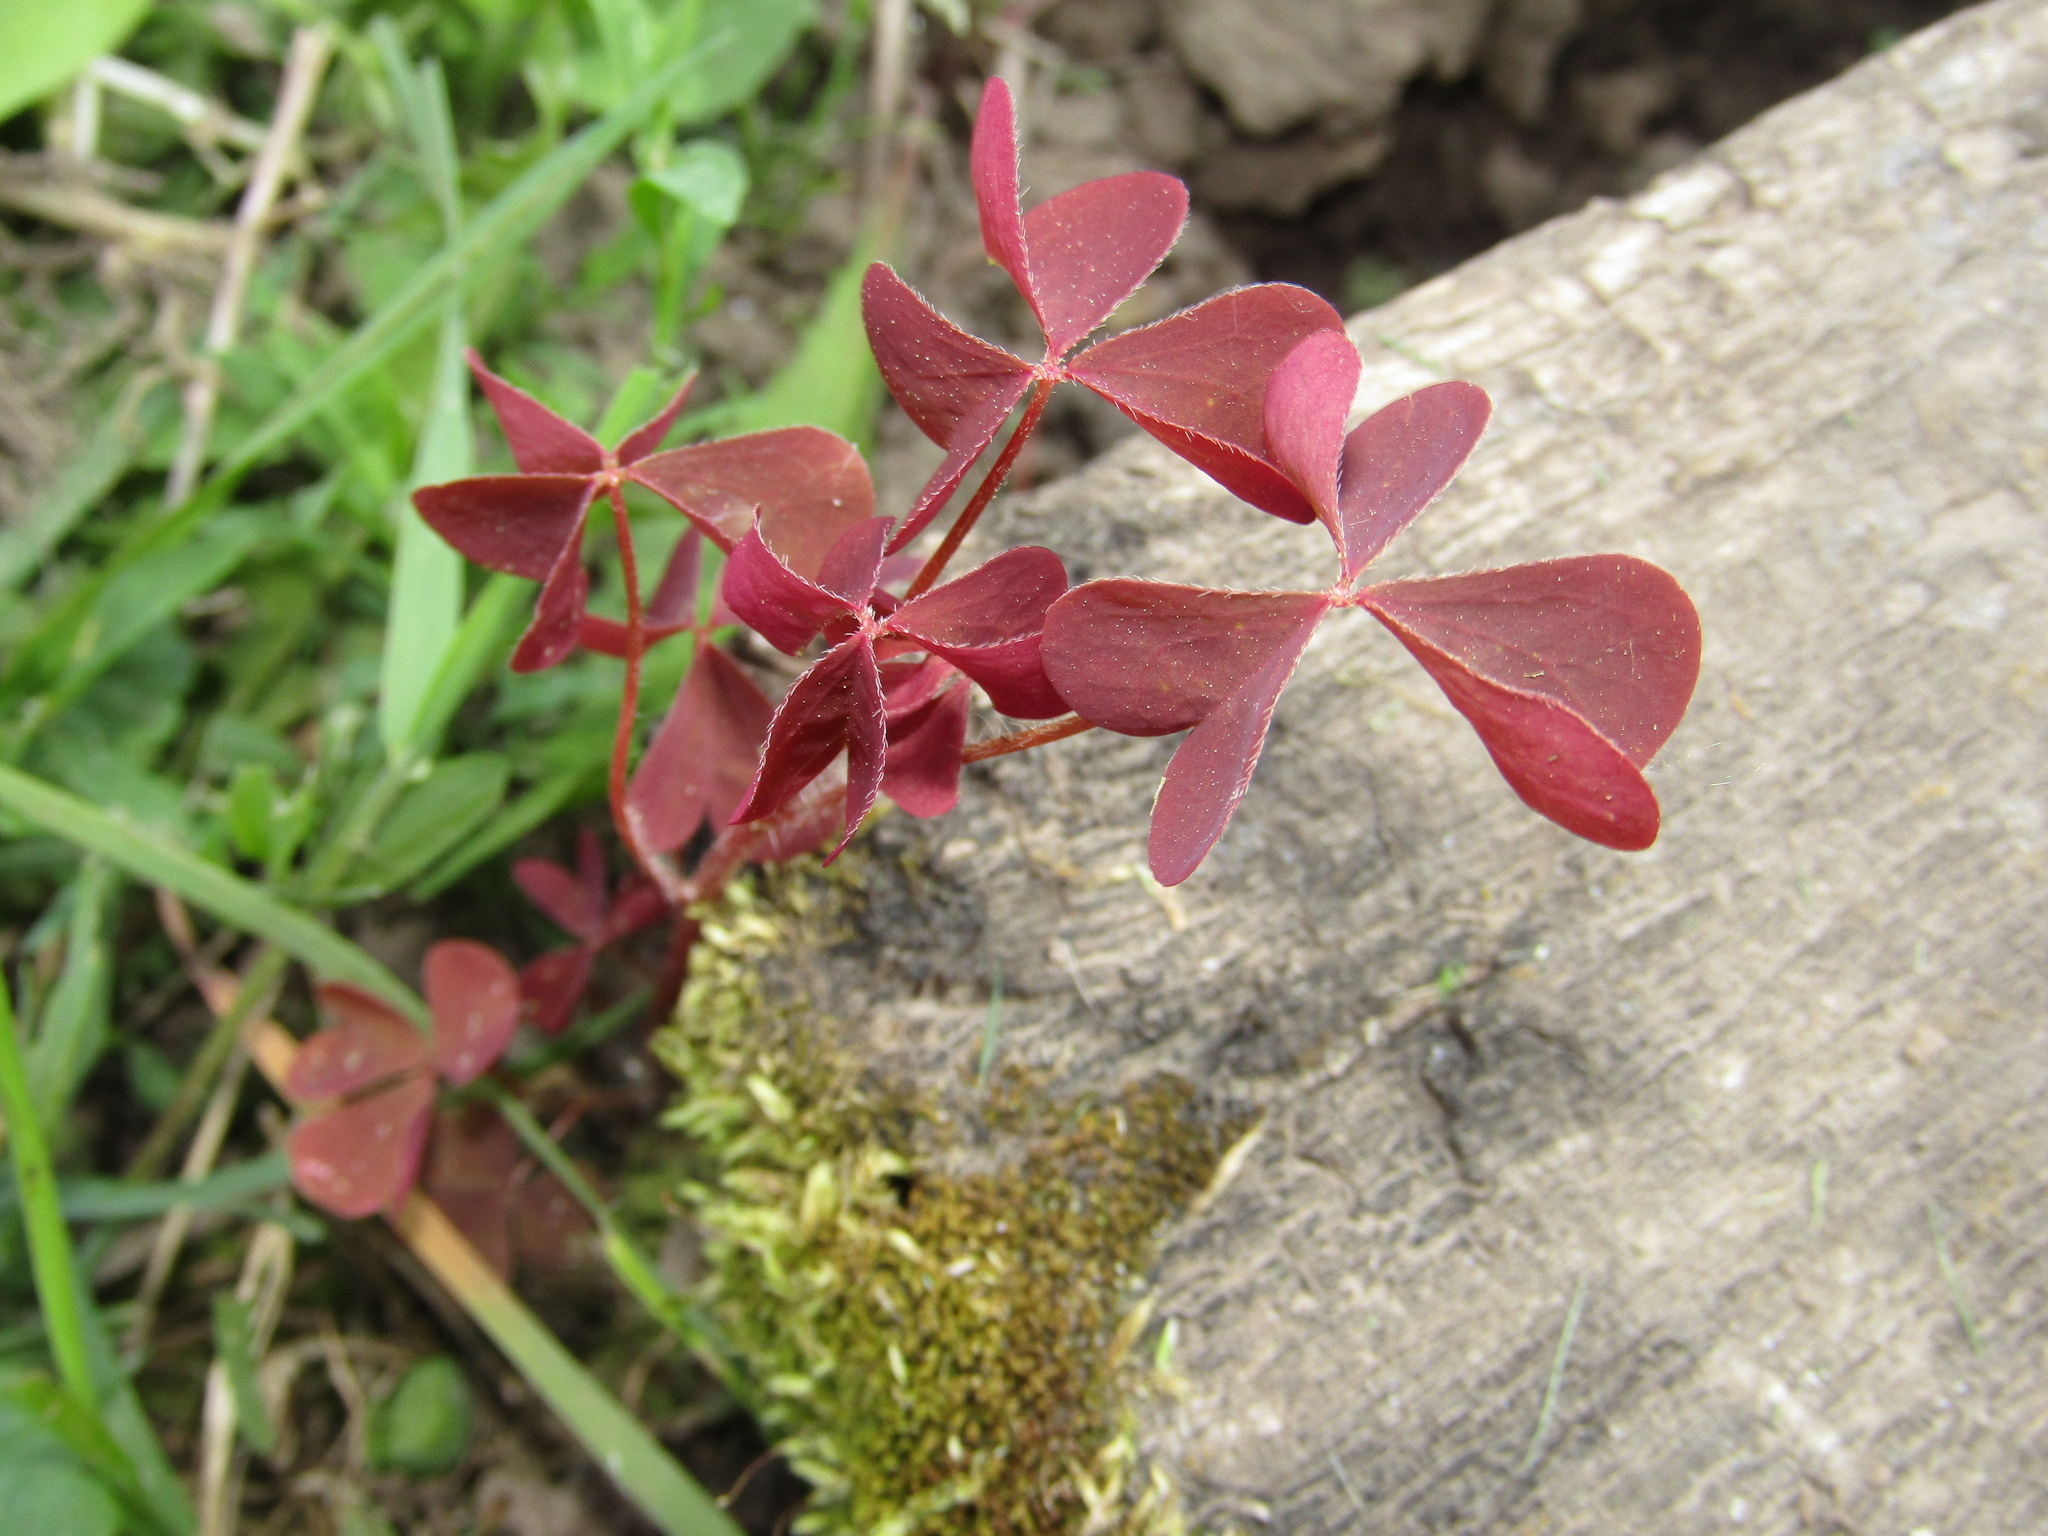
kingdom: Plantae
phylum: Tracheophyta
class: Magnoliopsida
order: Oxalidales
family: Oxalidaceae
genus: Oxalis
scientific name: Oxalis stricta
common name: Upright yellow-sorrel
